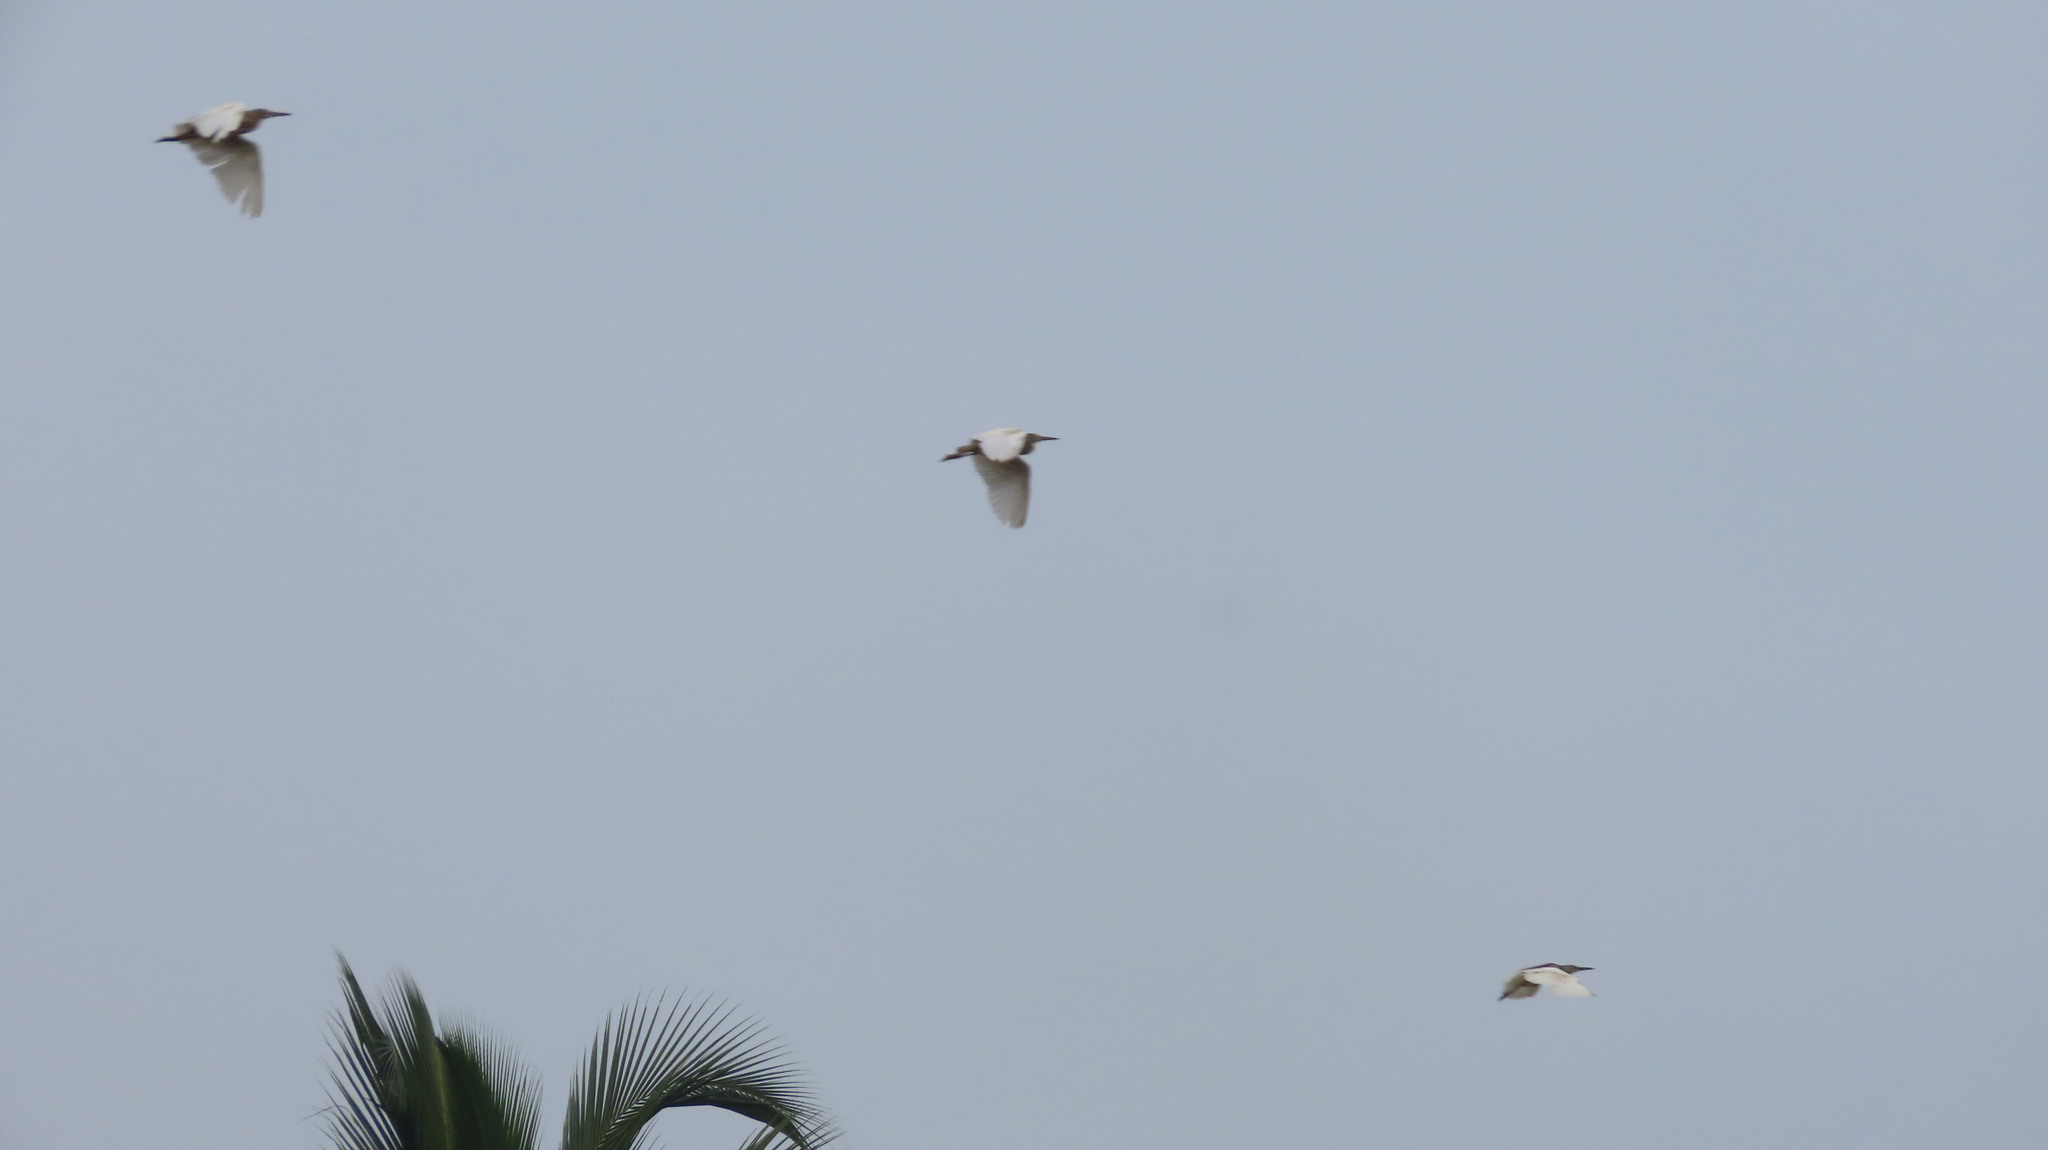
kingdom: Animalia
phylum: Chordata
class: Aves
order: Pelecaniformes
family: Ardeidae
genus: Ardeola
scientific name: Ardeola grayii
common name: Indian pond heron
